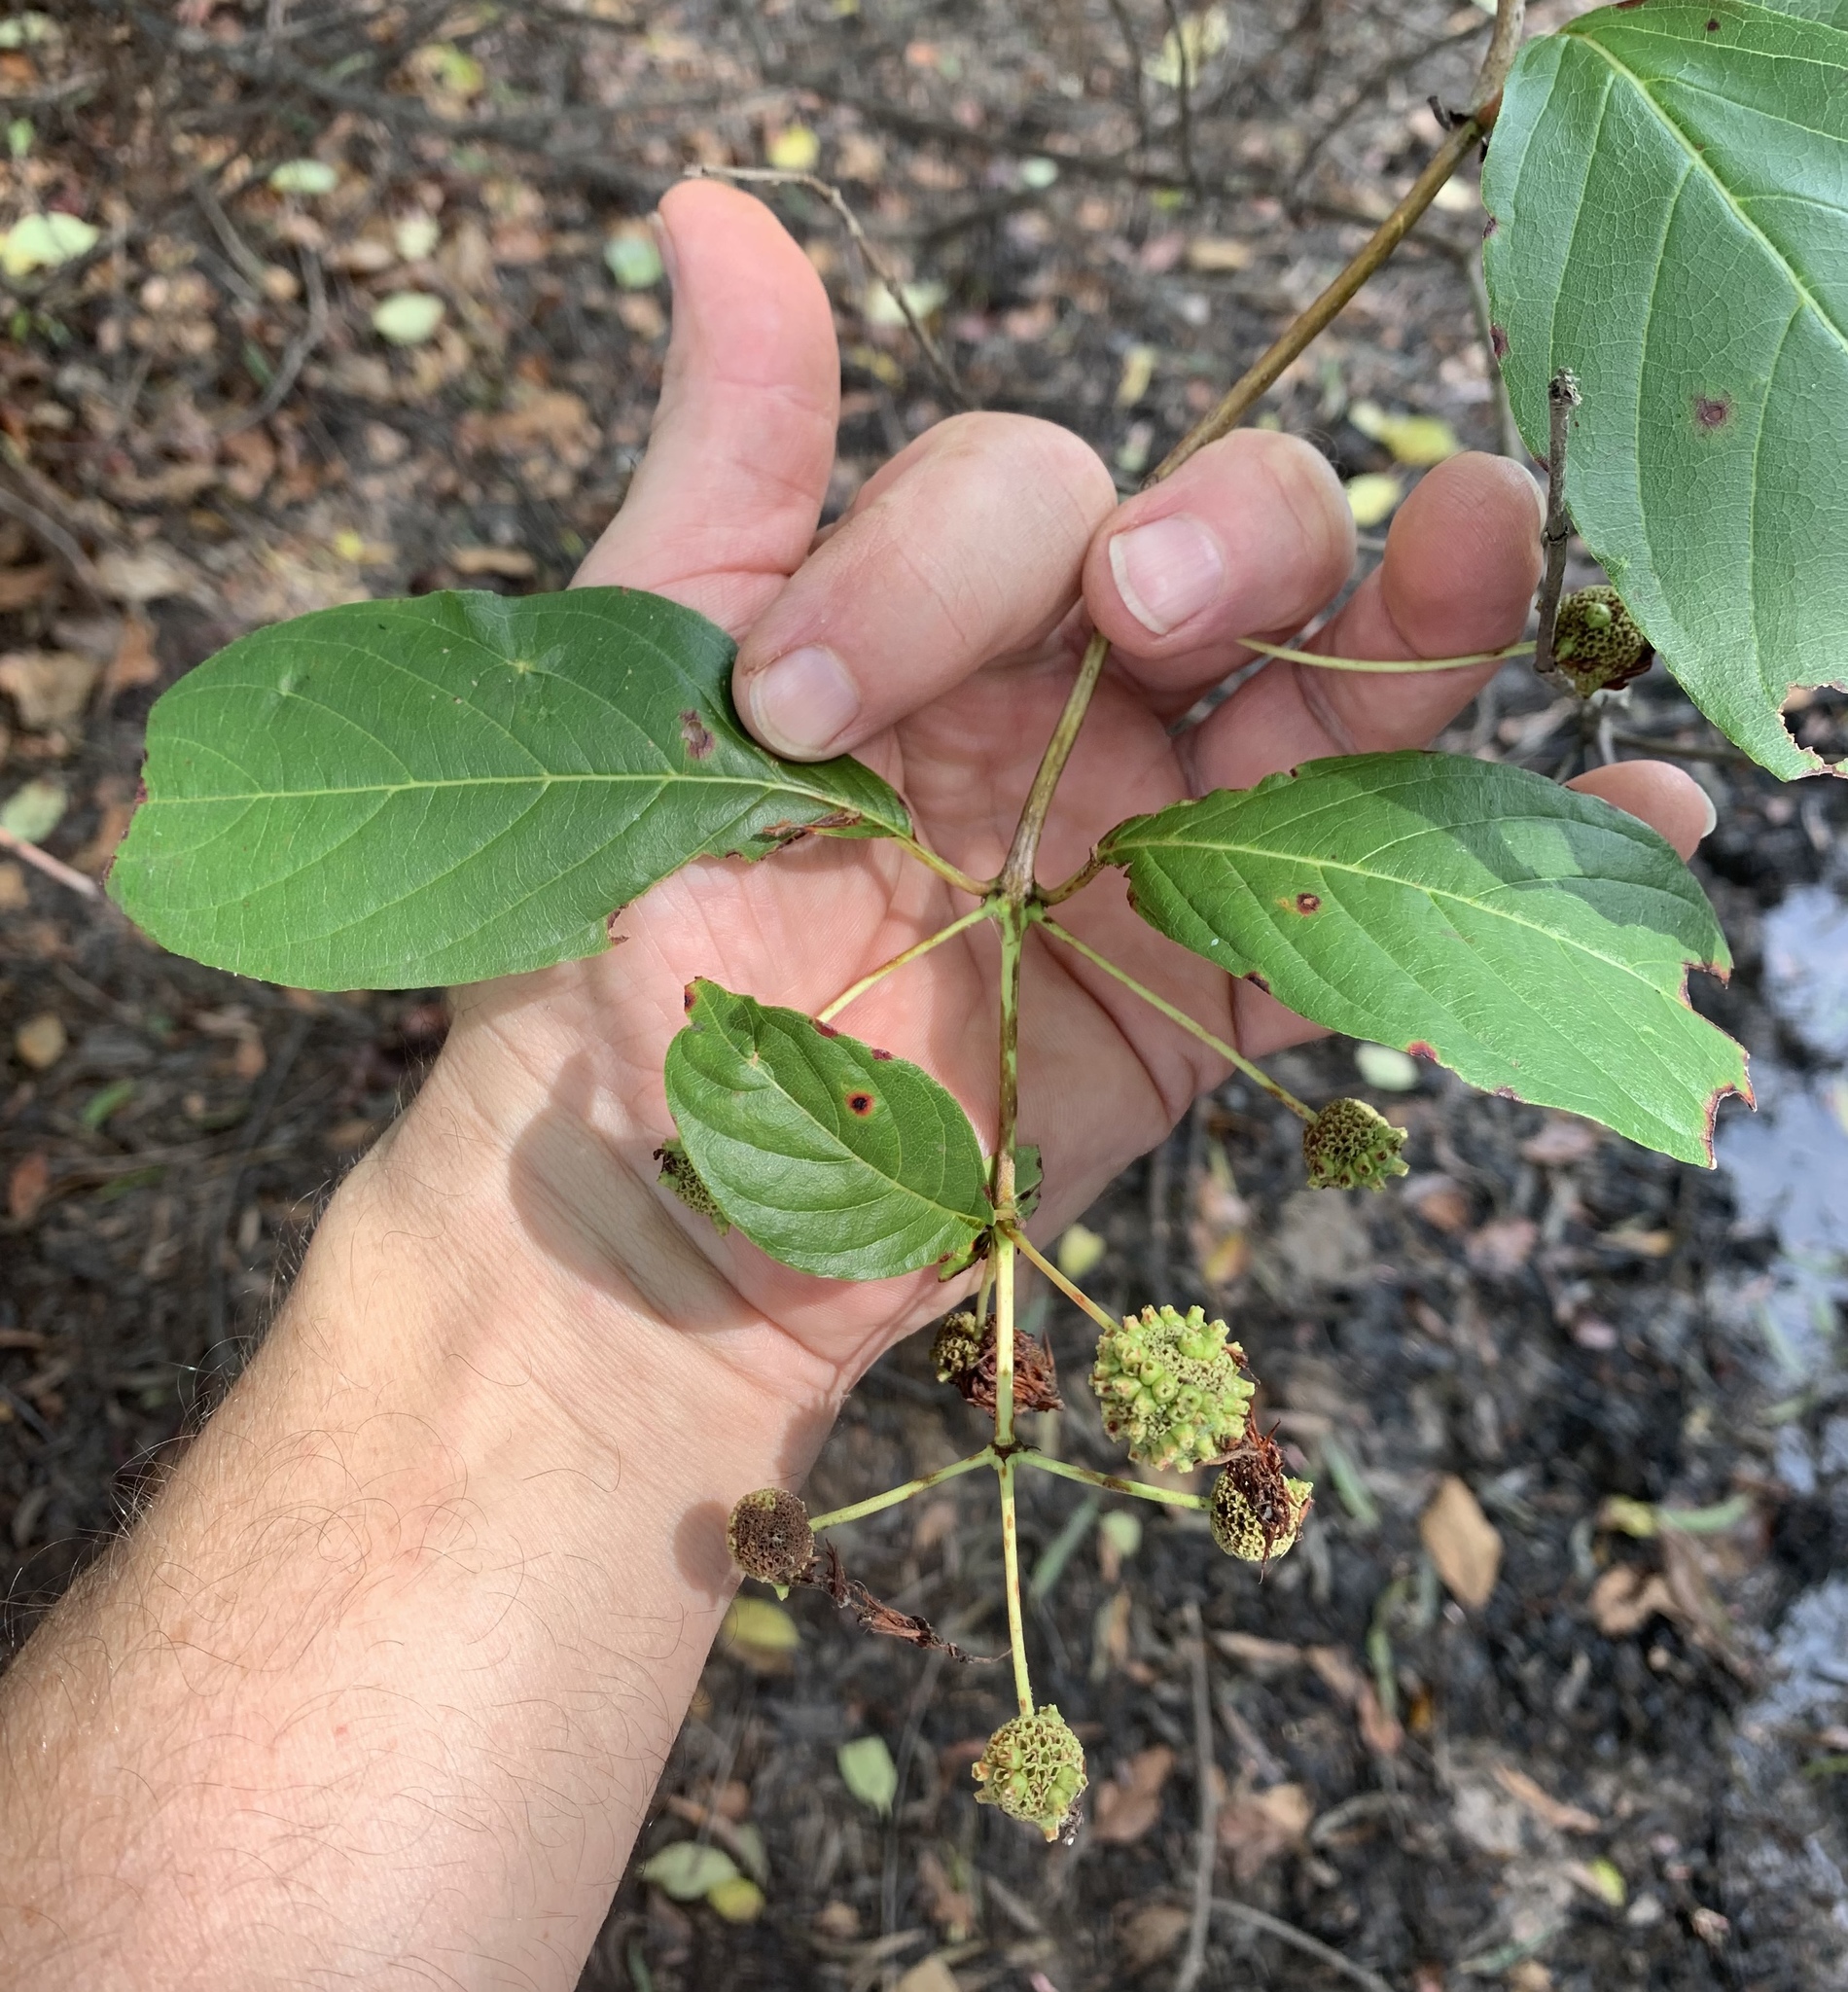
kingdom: Plantae
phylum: Tracheophyta
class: Magnoliopsida
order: Gentianales
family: Rubiaceae
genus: Cephalanthus
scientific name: Cephalanthus occidentalis
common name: Button-willow
